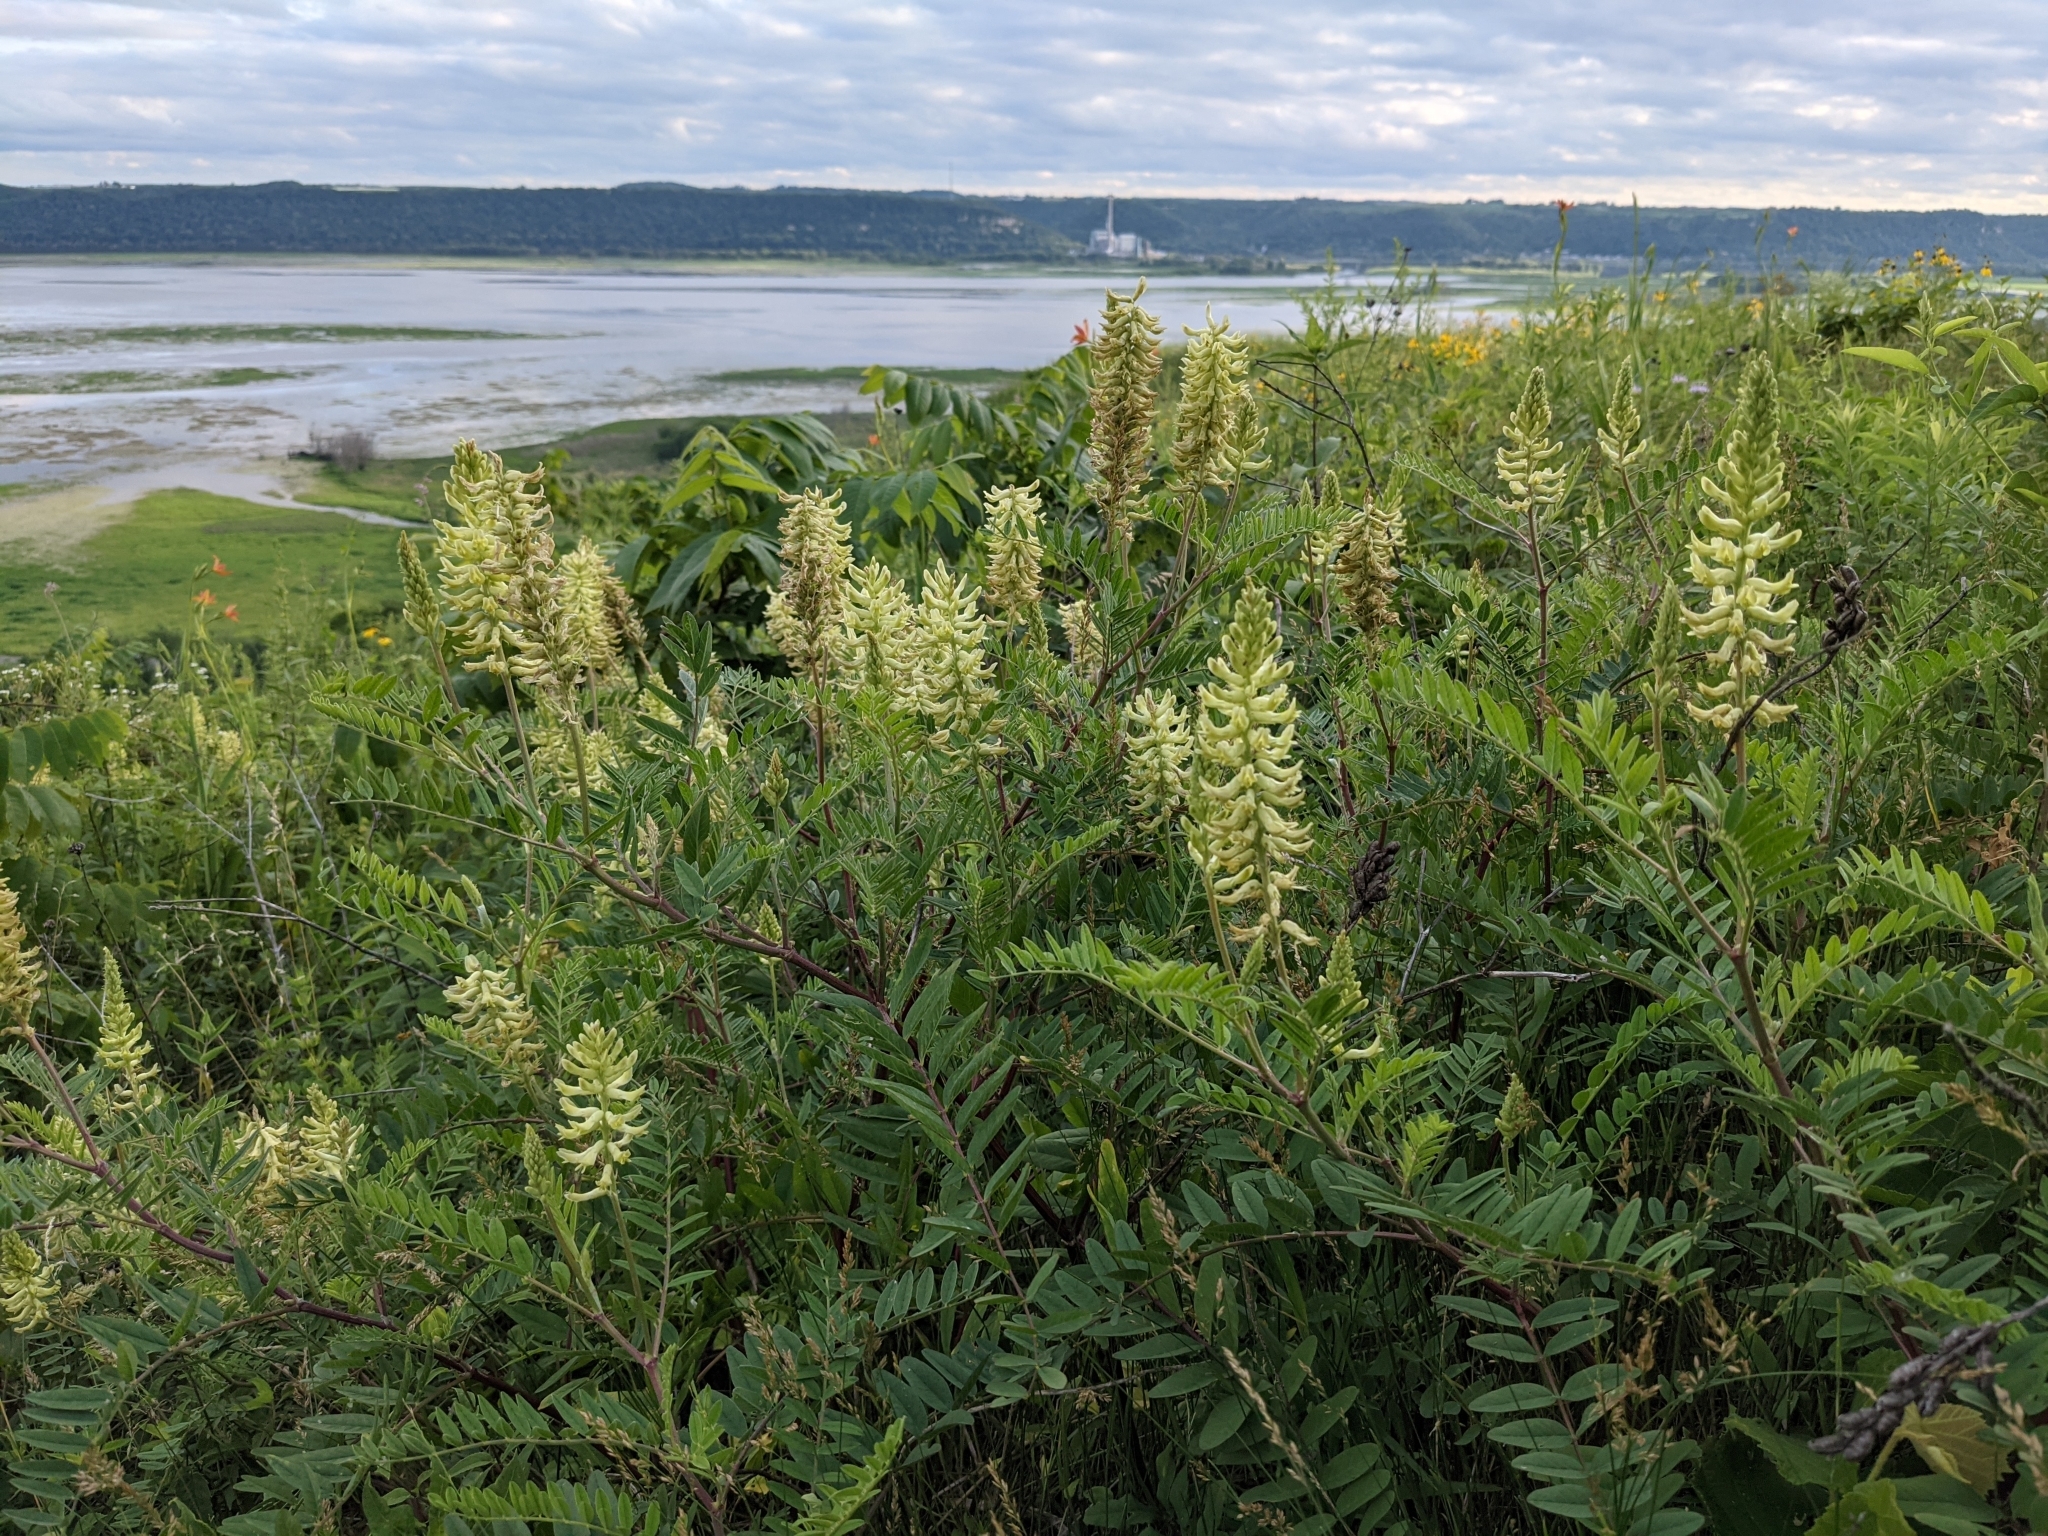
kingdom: Plantae
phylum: Tracheophyta
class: Magnoliopsida
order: Fabales
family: Fabaceae
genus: Astragalus
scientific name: Astragalus canadensis
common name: Canada milk-vetch
